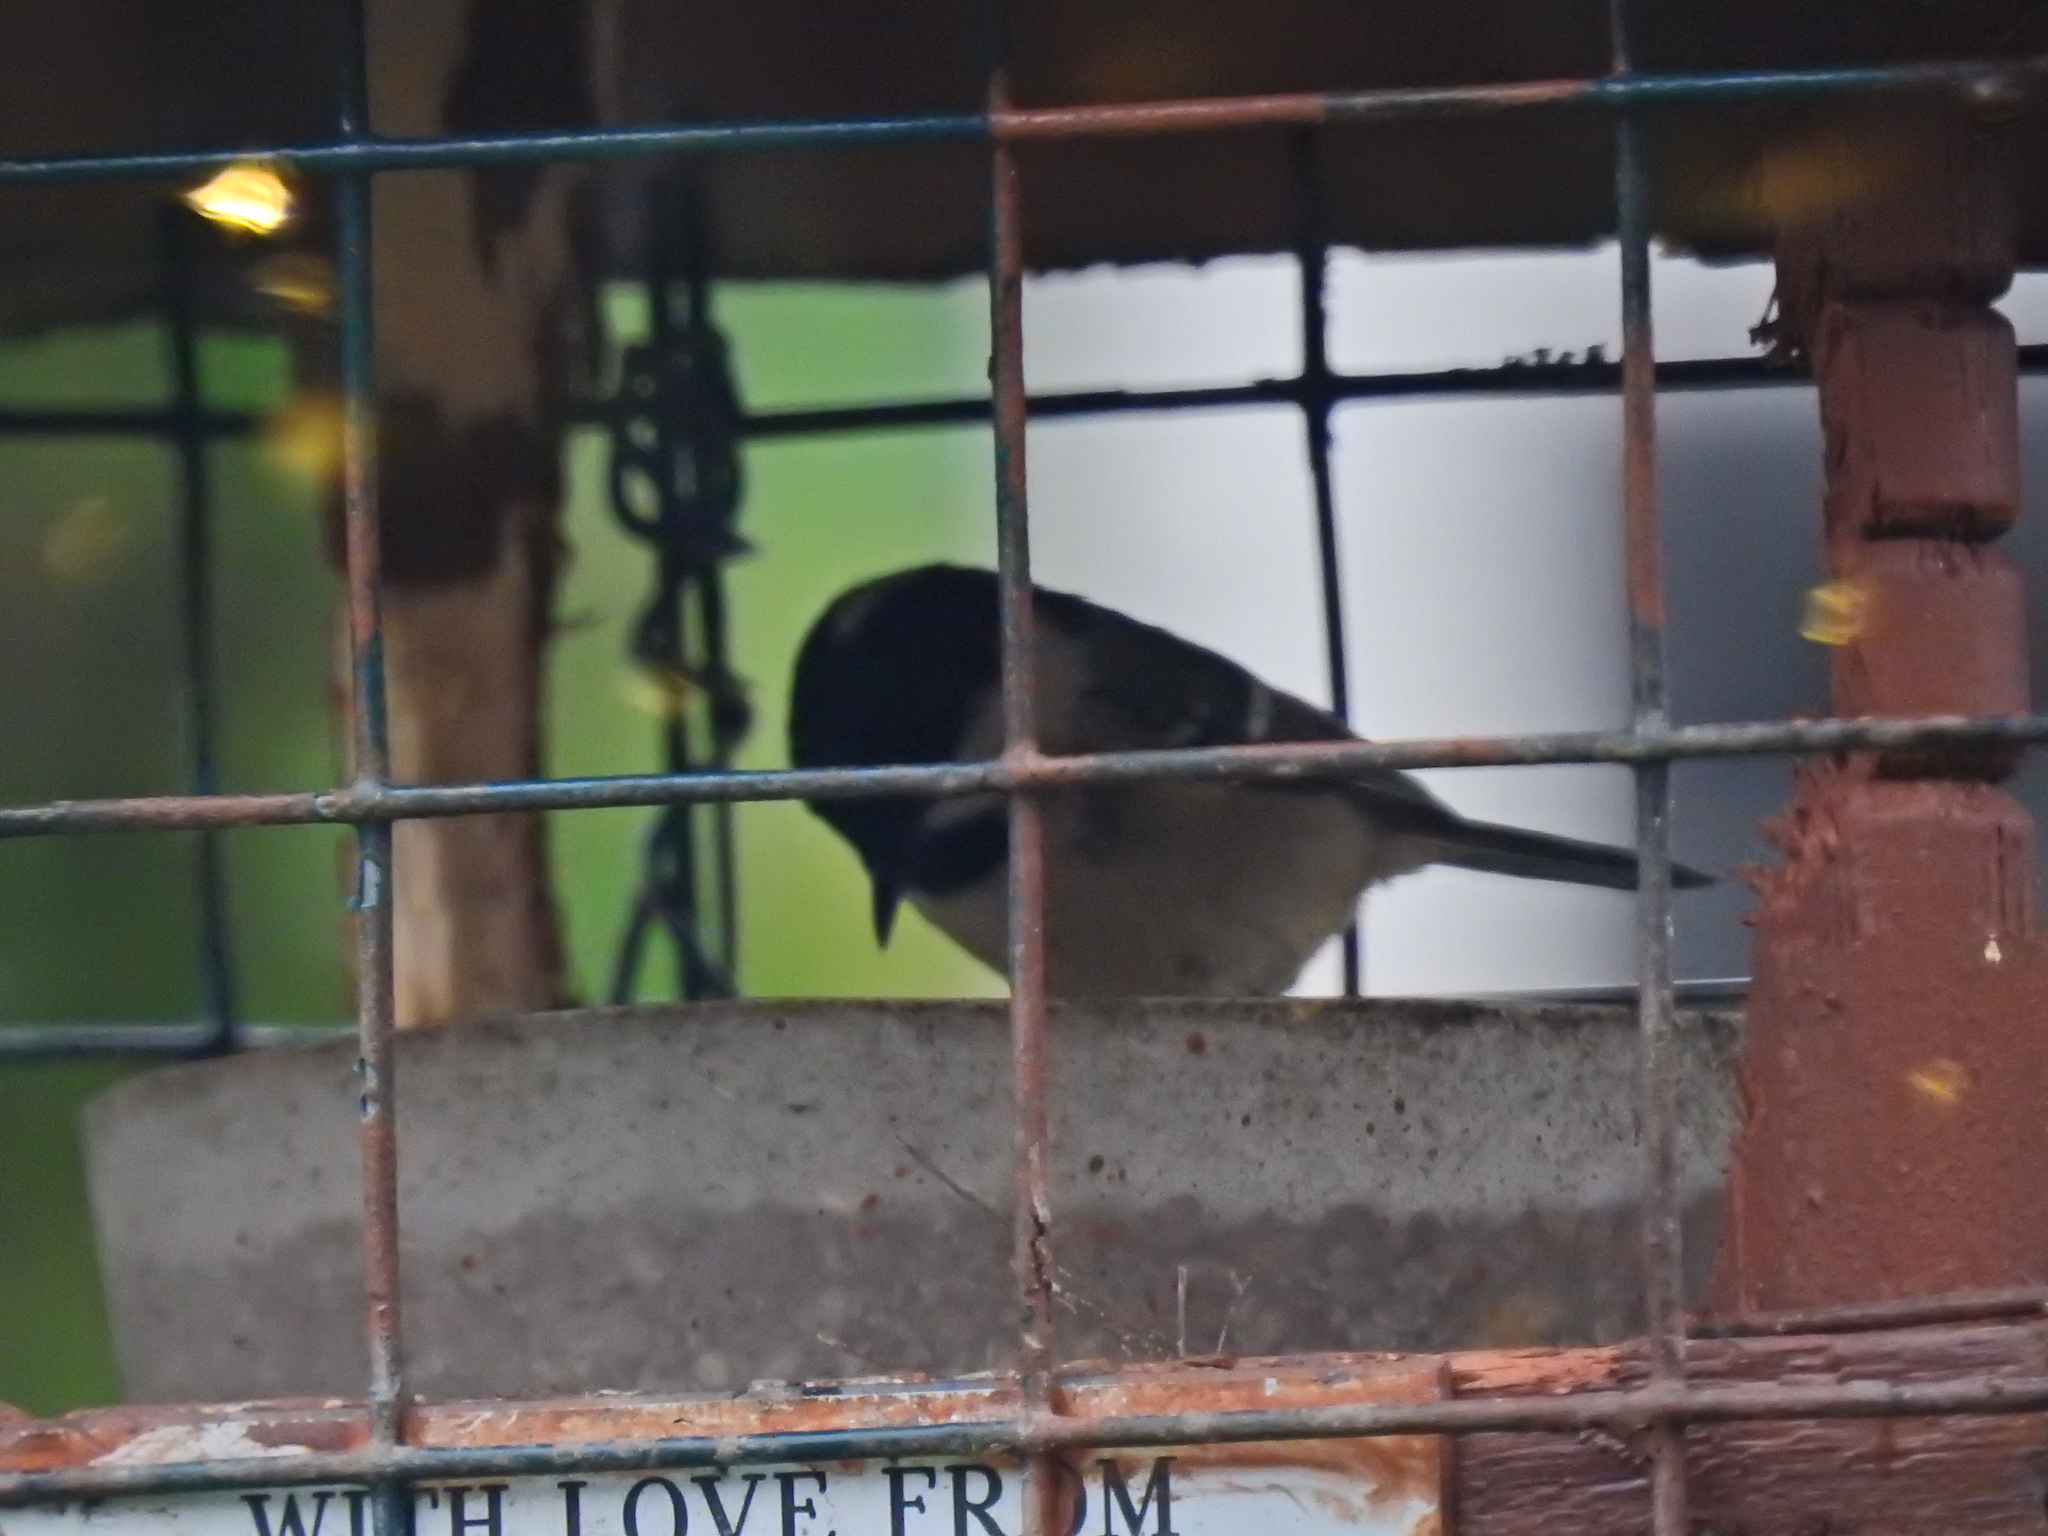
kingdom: Animalia
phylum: Chordata
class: Aves
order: Passeriformes
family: Paridae
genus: Periparus
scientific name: Periparus ater
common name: Coal tit
